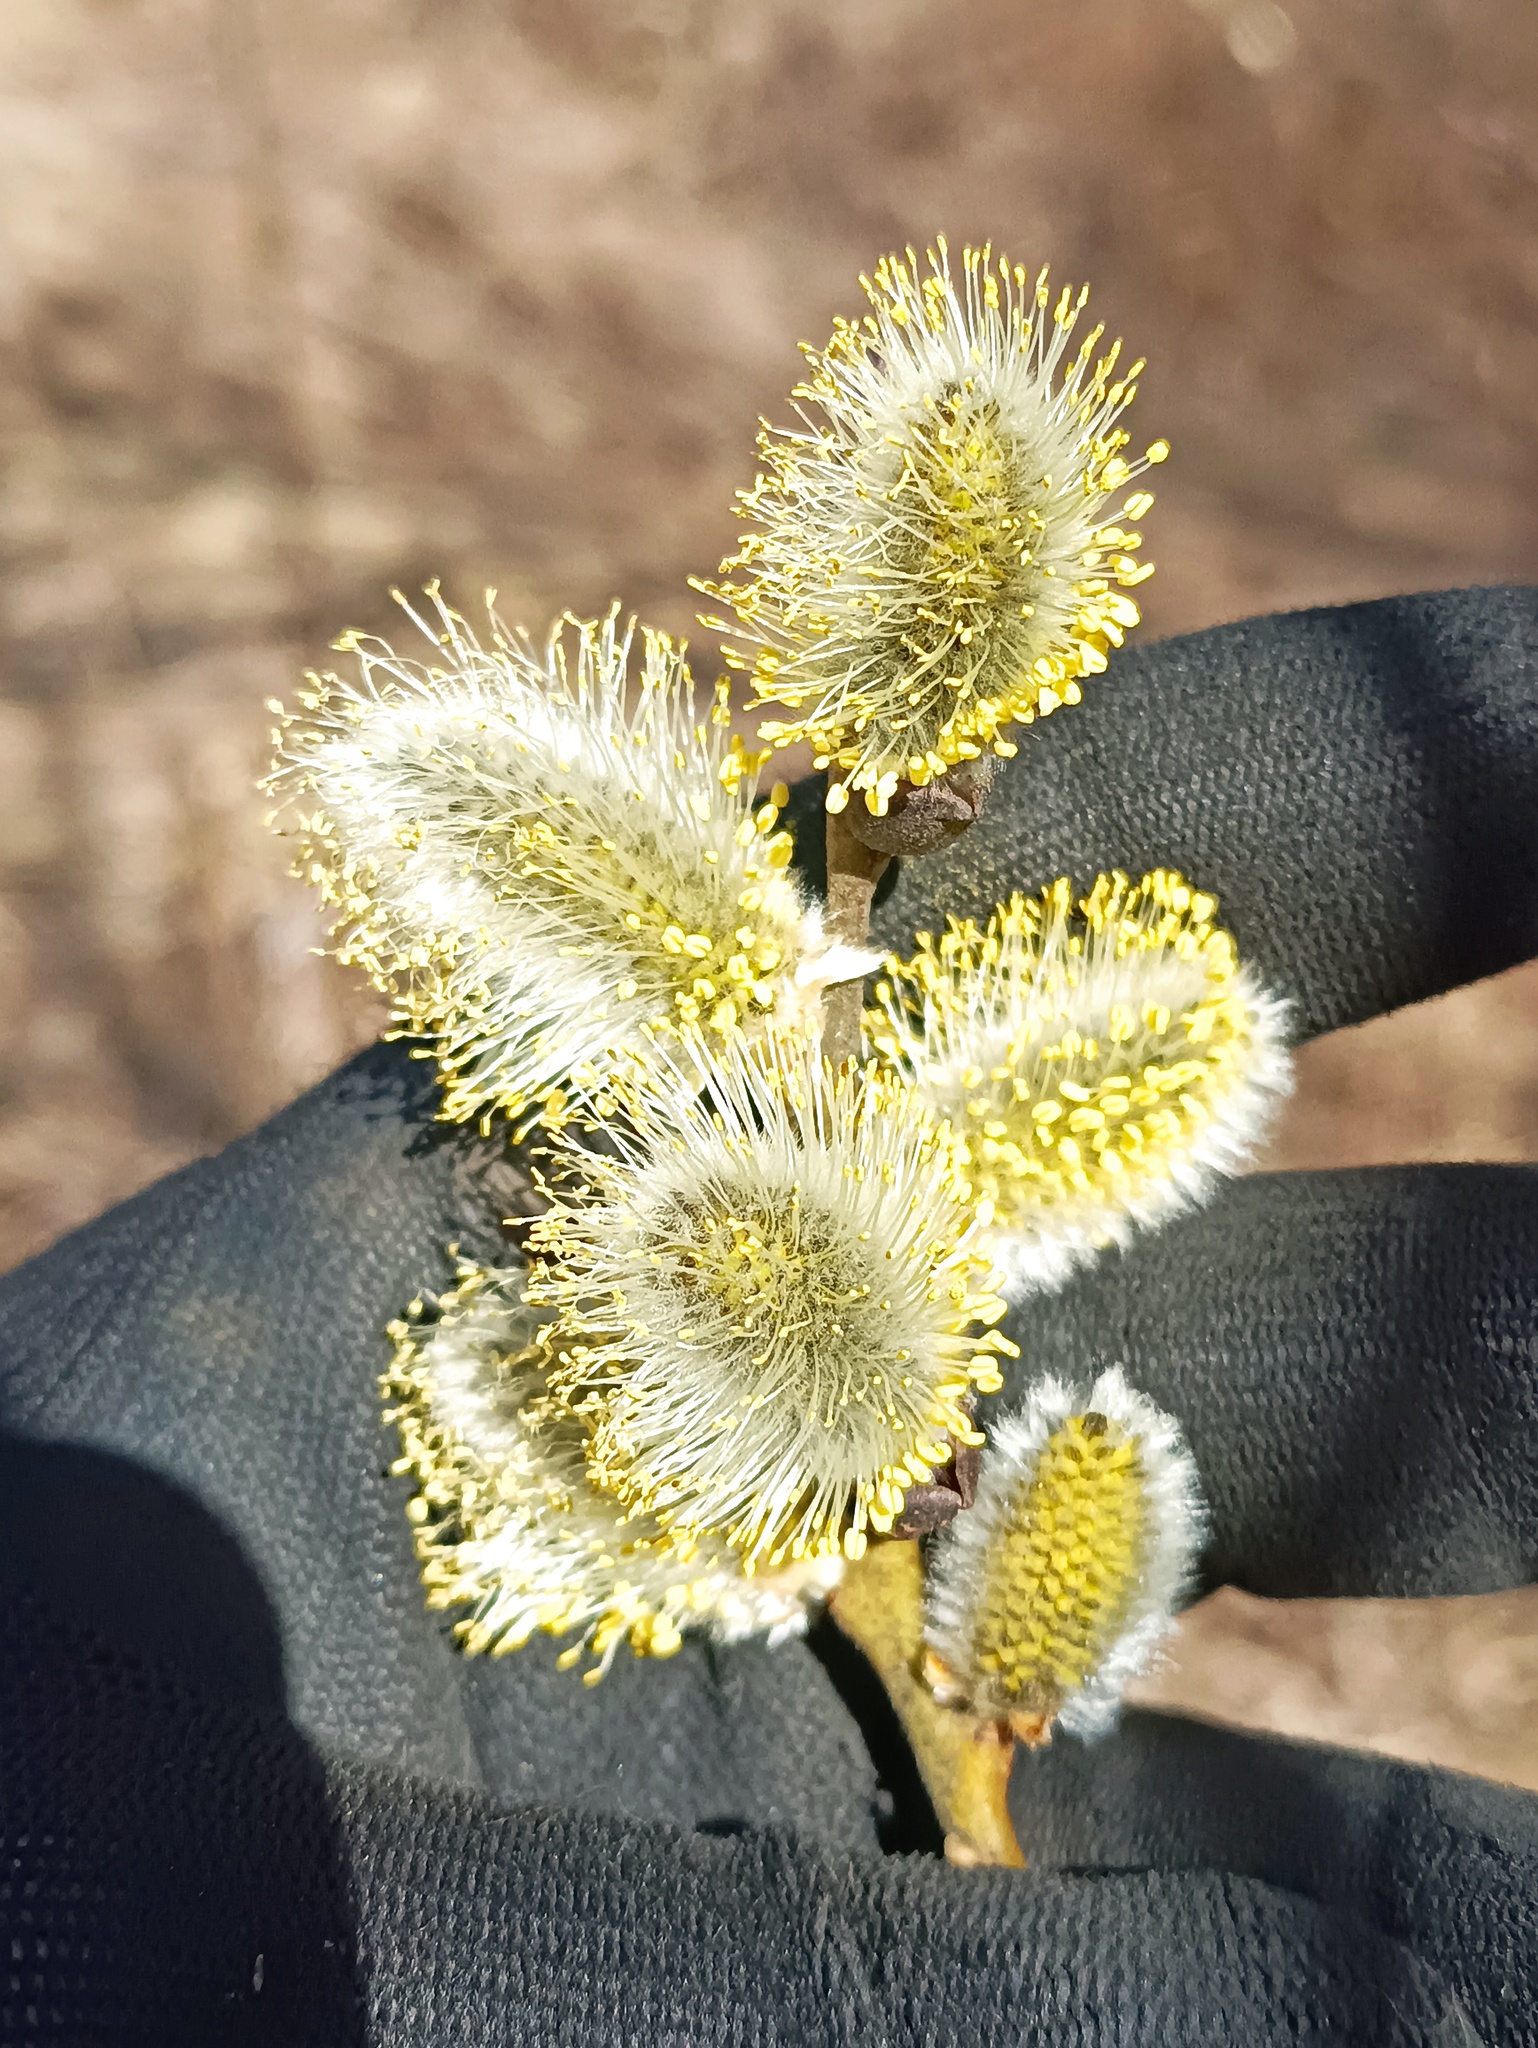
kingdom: Plantae
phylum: Tracheophyta
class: Magnoliopsida
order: Malpighiales
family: Salicaceae
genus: Salix
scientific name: Salix caprea
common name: Goat willow
